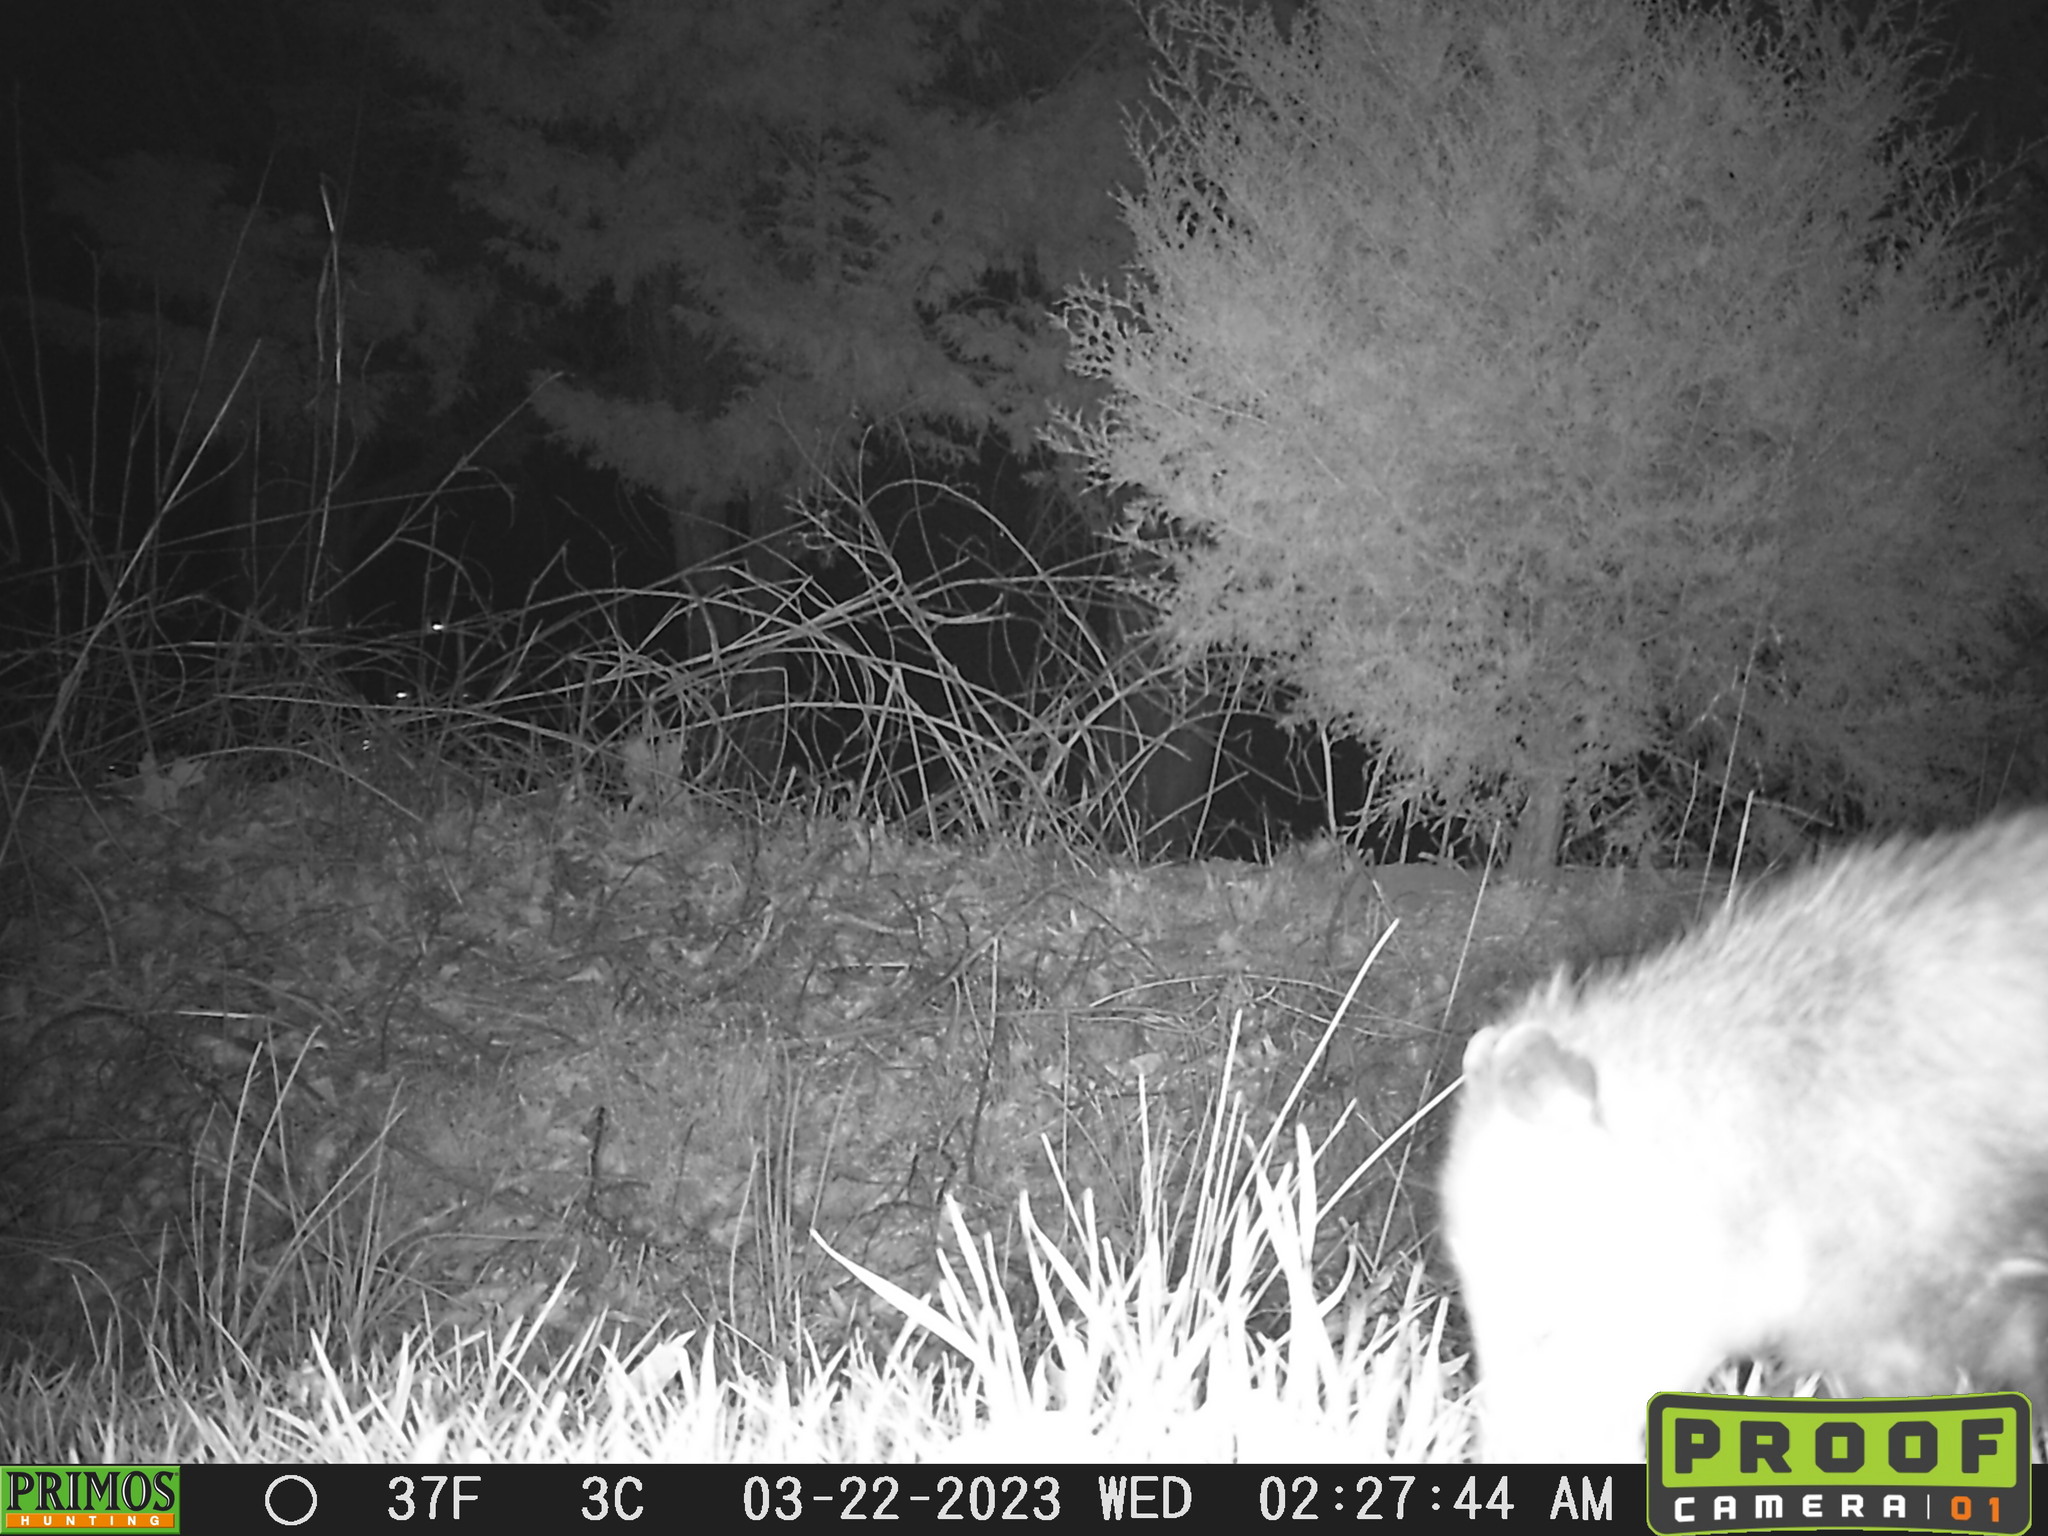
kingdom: Animalia
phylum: Chordata
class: Mammalia
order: Didelphimorphia
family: Didelphidae
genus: Didelphis
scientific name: Didelphis virginiana
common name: Virginia opossum
